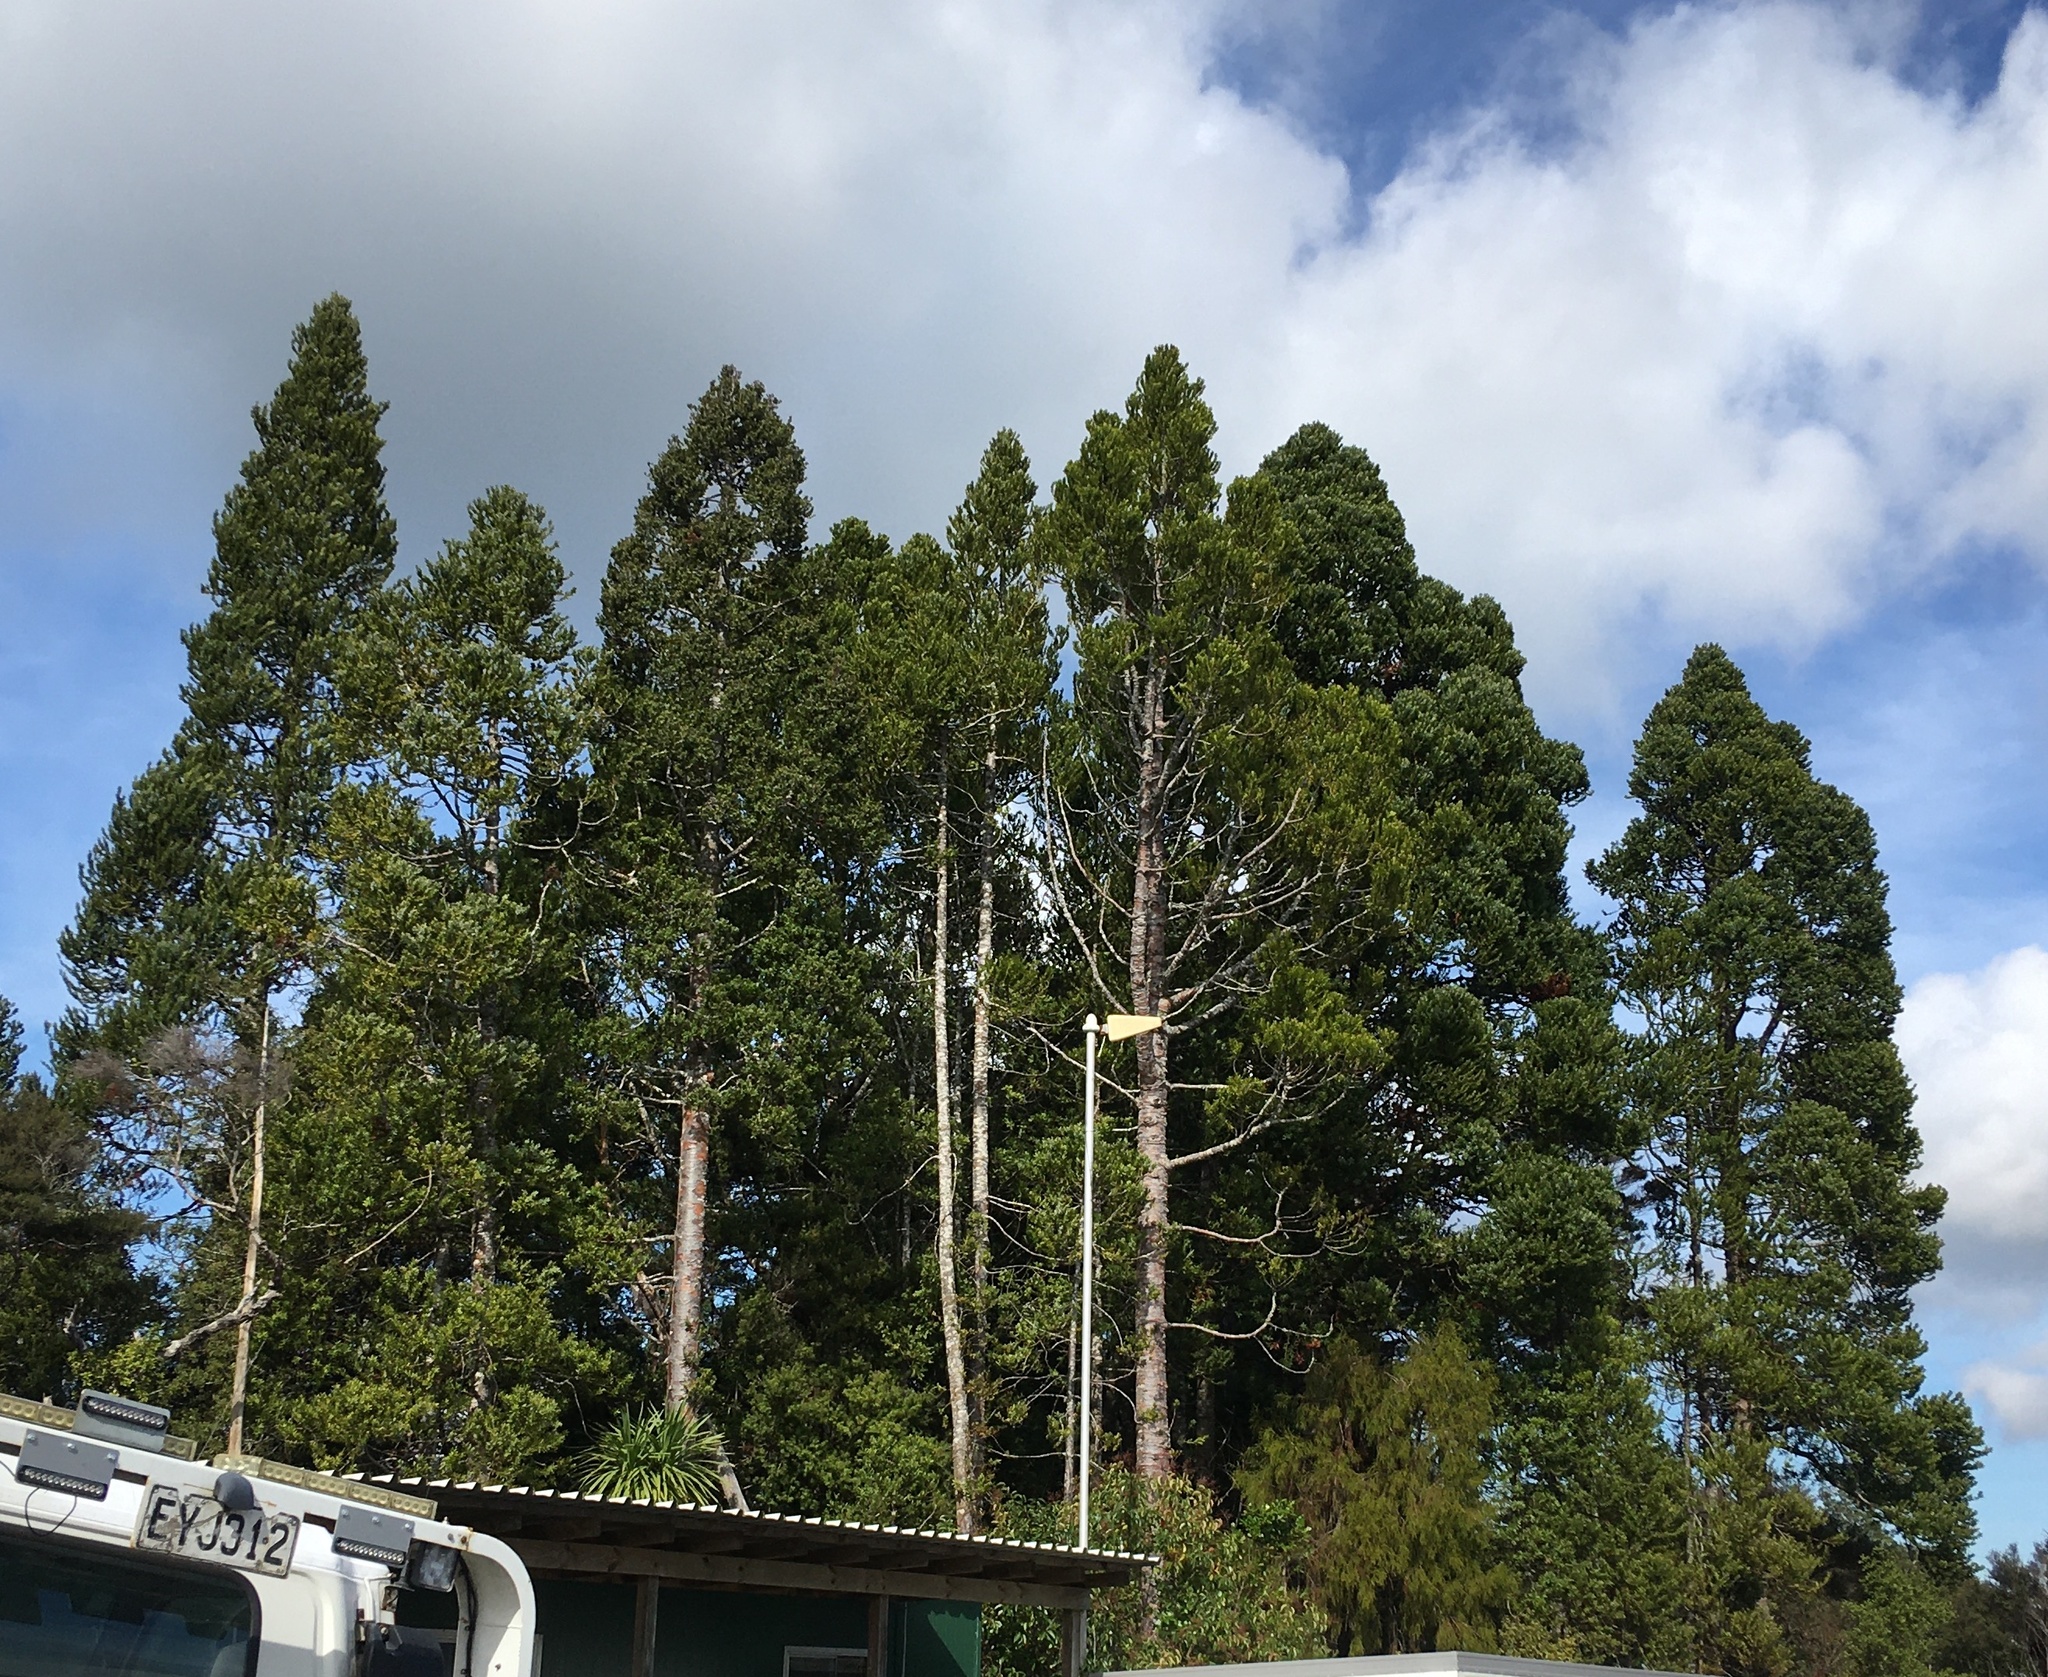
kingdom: Plantae
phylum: Tracheophyta
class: Pinopsida
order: Pinales
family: Araucariaceae
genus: Agathis
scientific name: Agathis australis
